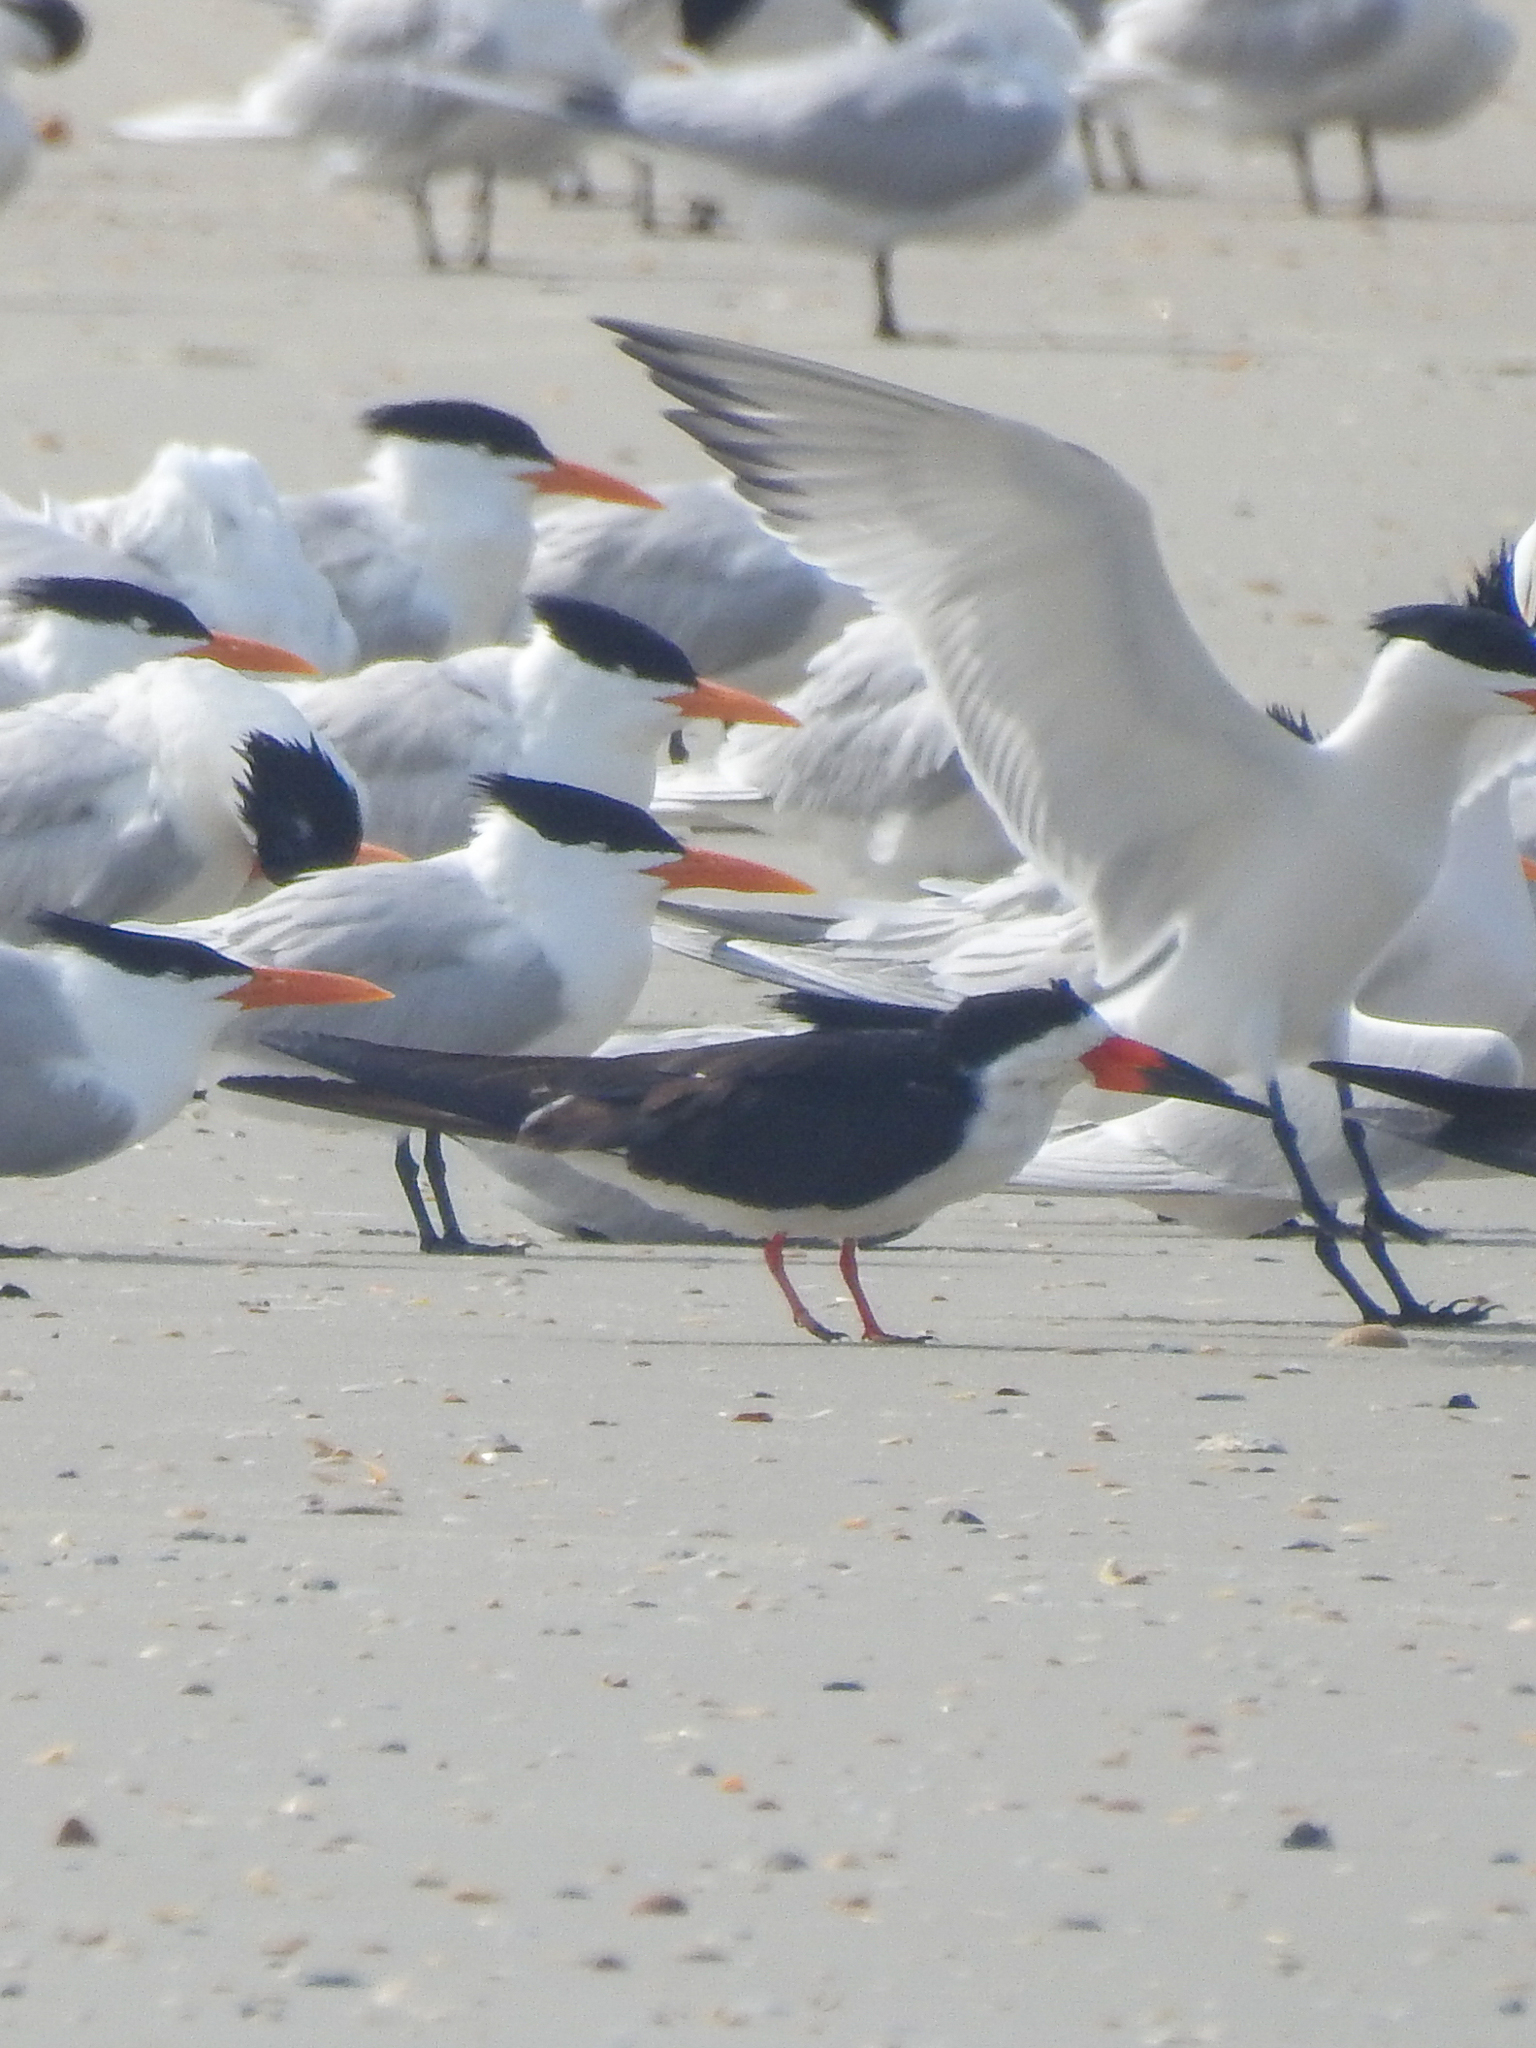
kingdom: Animalia
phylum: Chordata
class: Aves
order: Charadriiformes
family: Laridae
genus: Rynchops
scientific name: Rynchops niger
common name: Black skimmer
